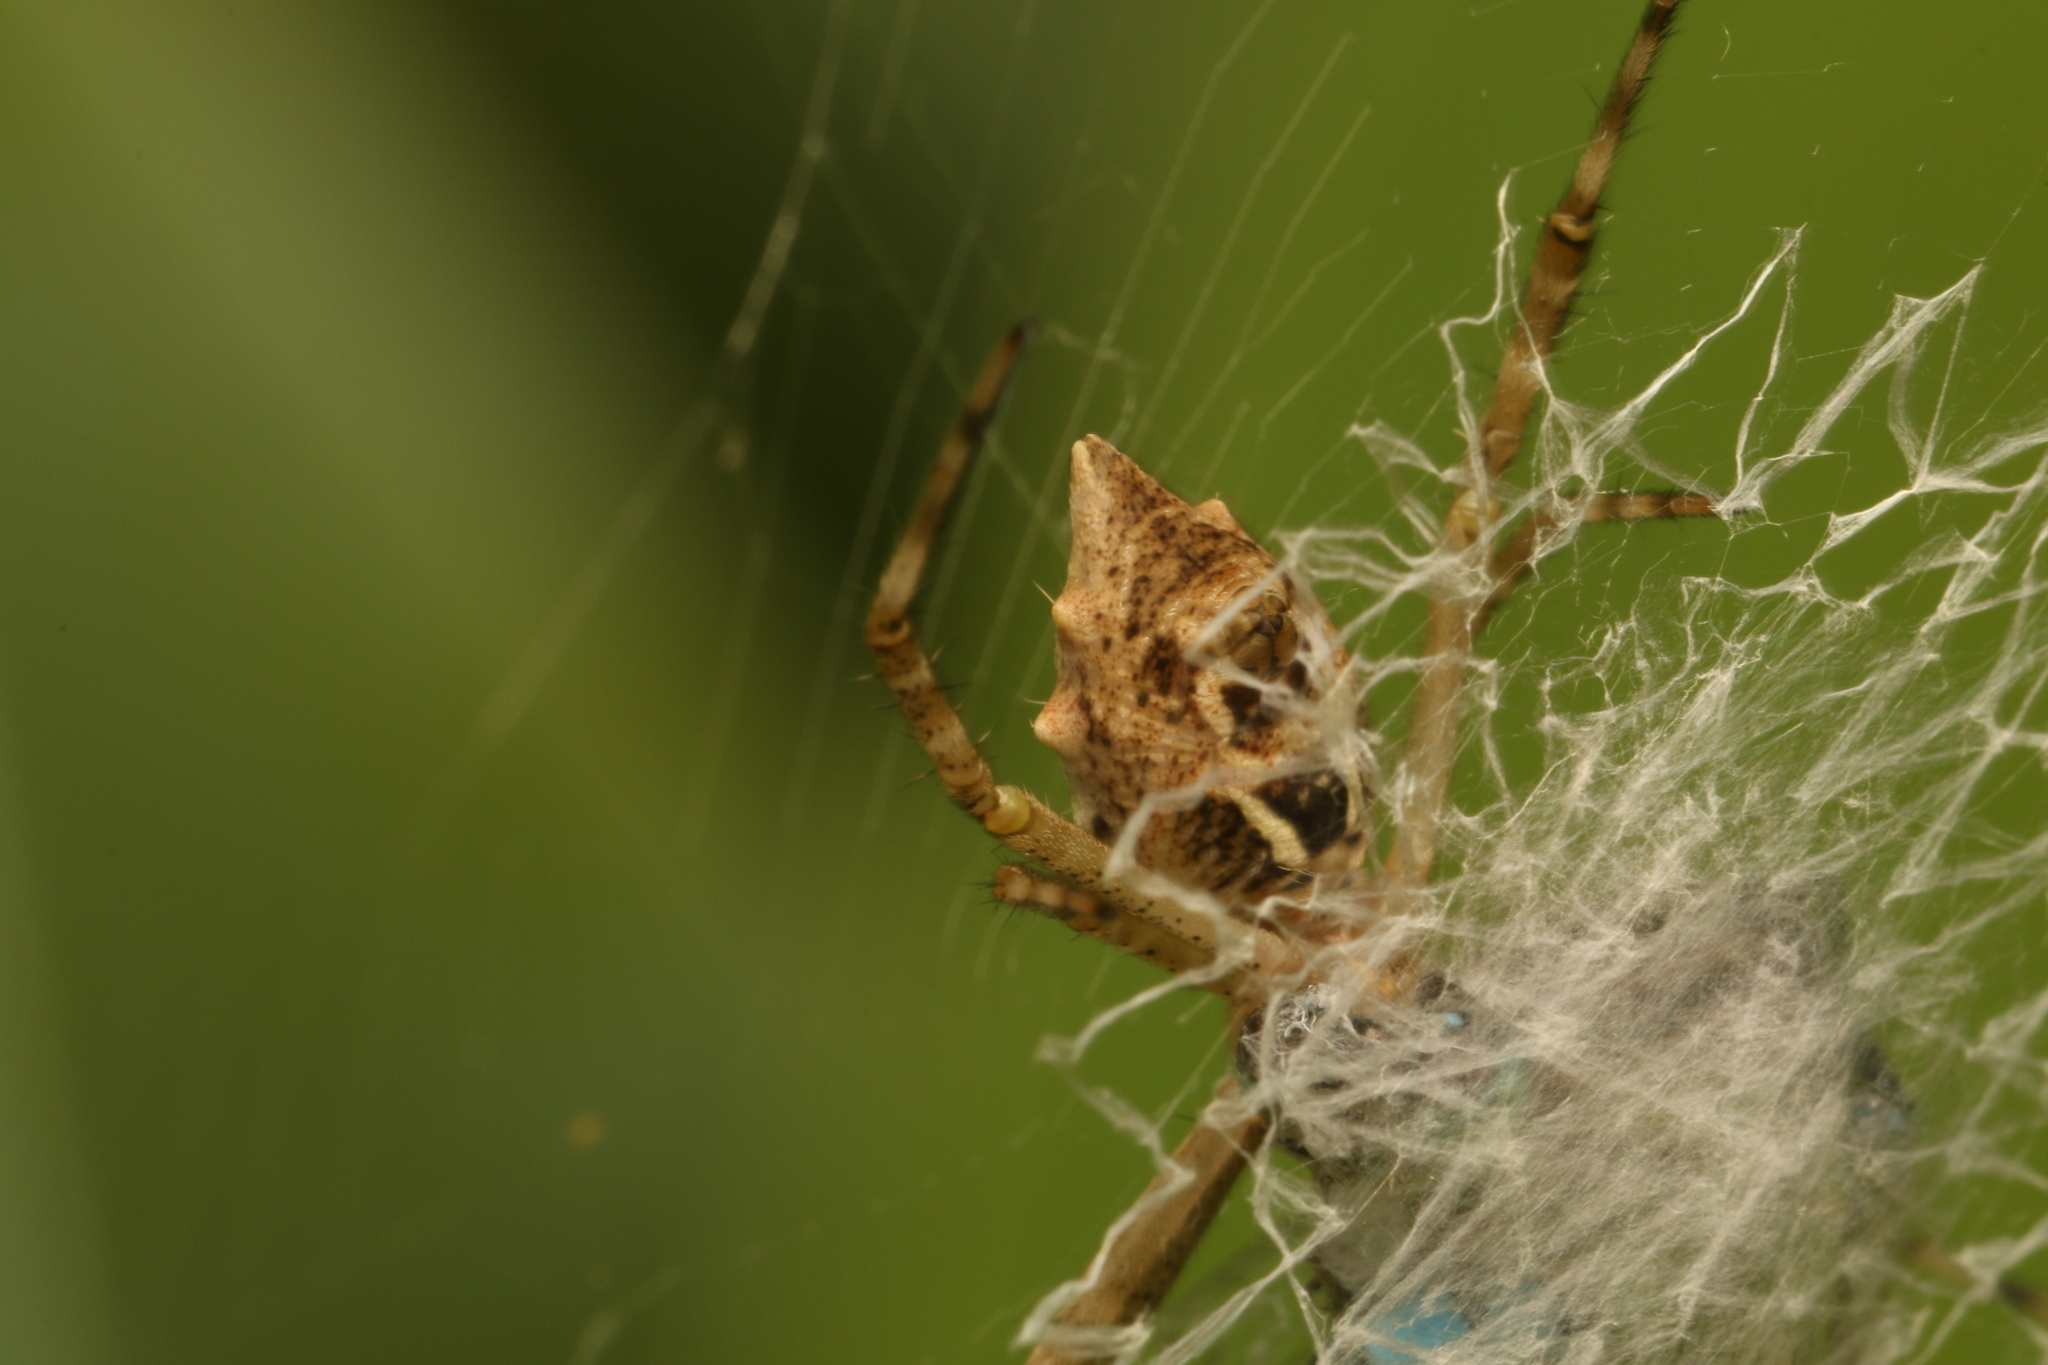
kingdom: Animalia
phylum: Arthropoda
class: Arachnida
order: Araneae
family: Araneidae
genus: Argiope
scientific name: Argiope argentata
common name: Orb weavers
